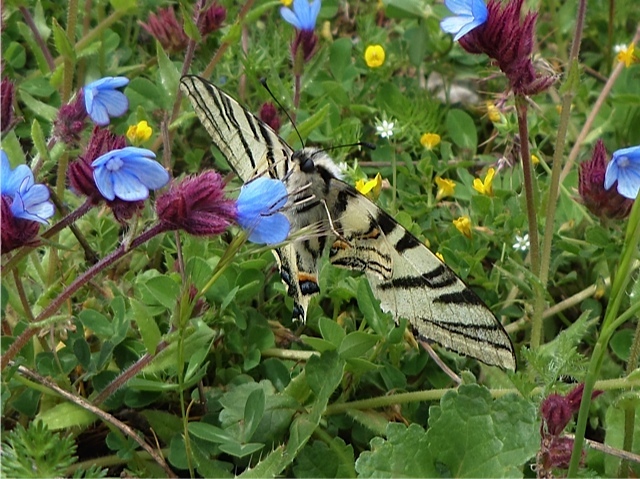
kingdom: Animalia
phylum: Arthropoda
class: Insecta
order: Lepidoptera
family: Papilionidae
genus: Iphiclides
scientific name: Iphiclides podalirius
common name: Scarce swallowtail
